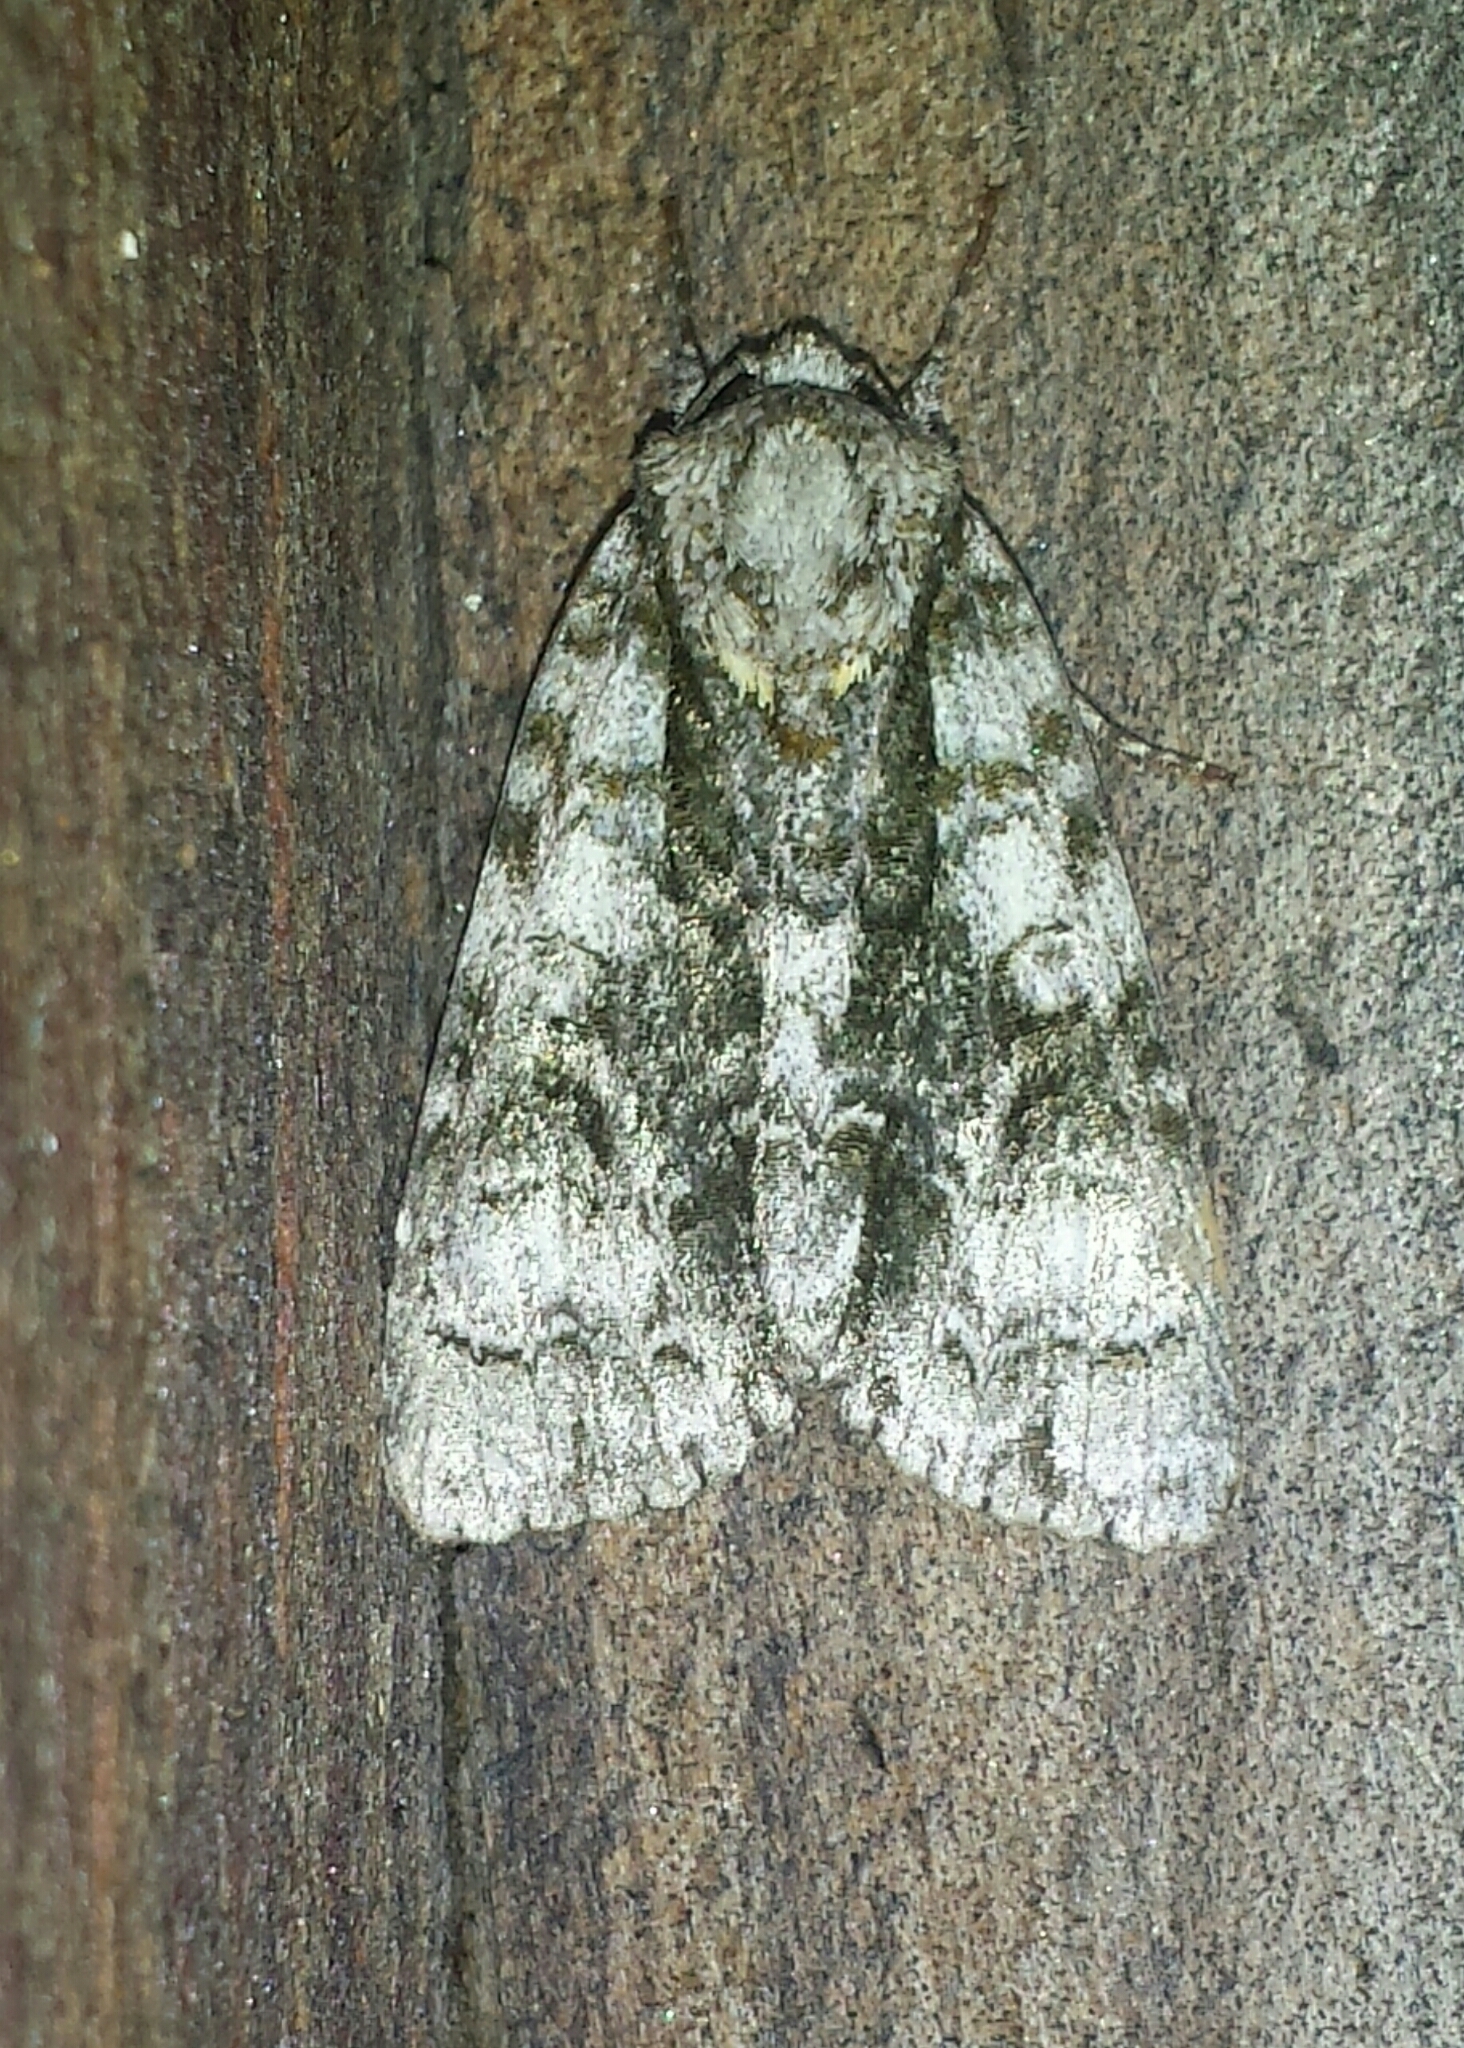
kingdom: Animalia
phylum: Arthropoda
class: Insecta
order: Lepidoptera
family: Noctuidae
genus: Acronicta
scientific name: Acronicta superans
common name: Splendid dagger
